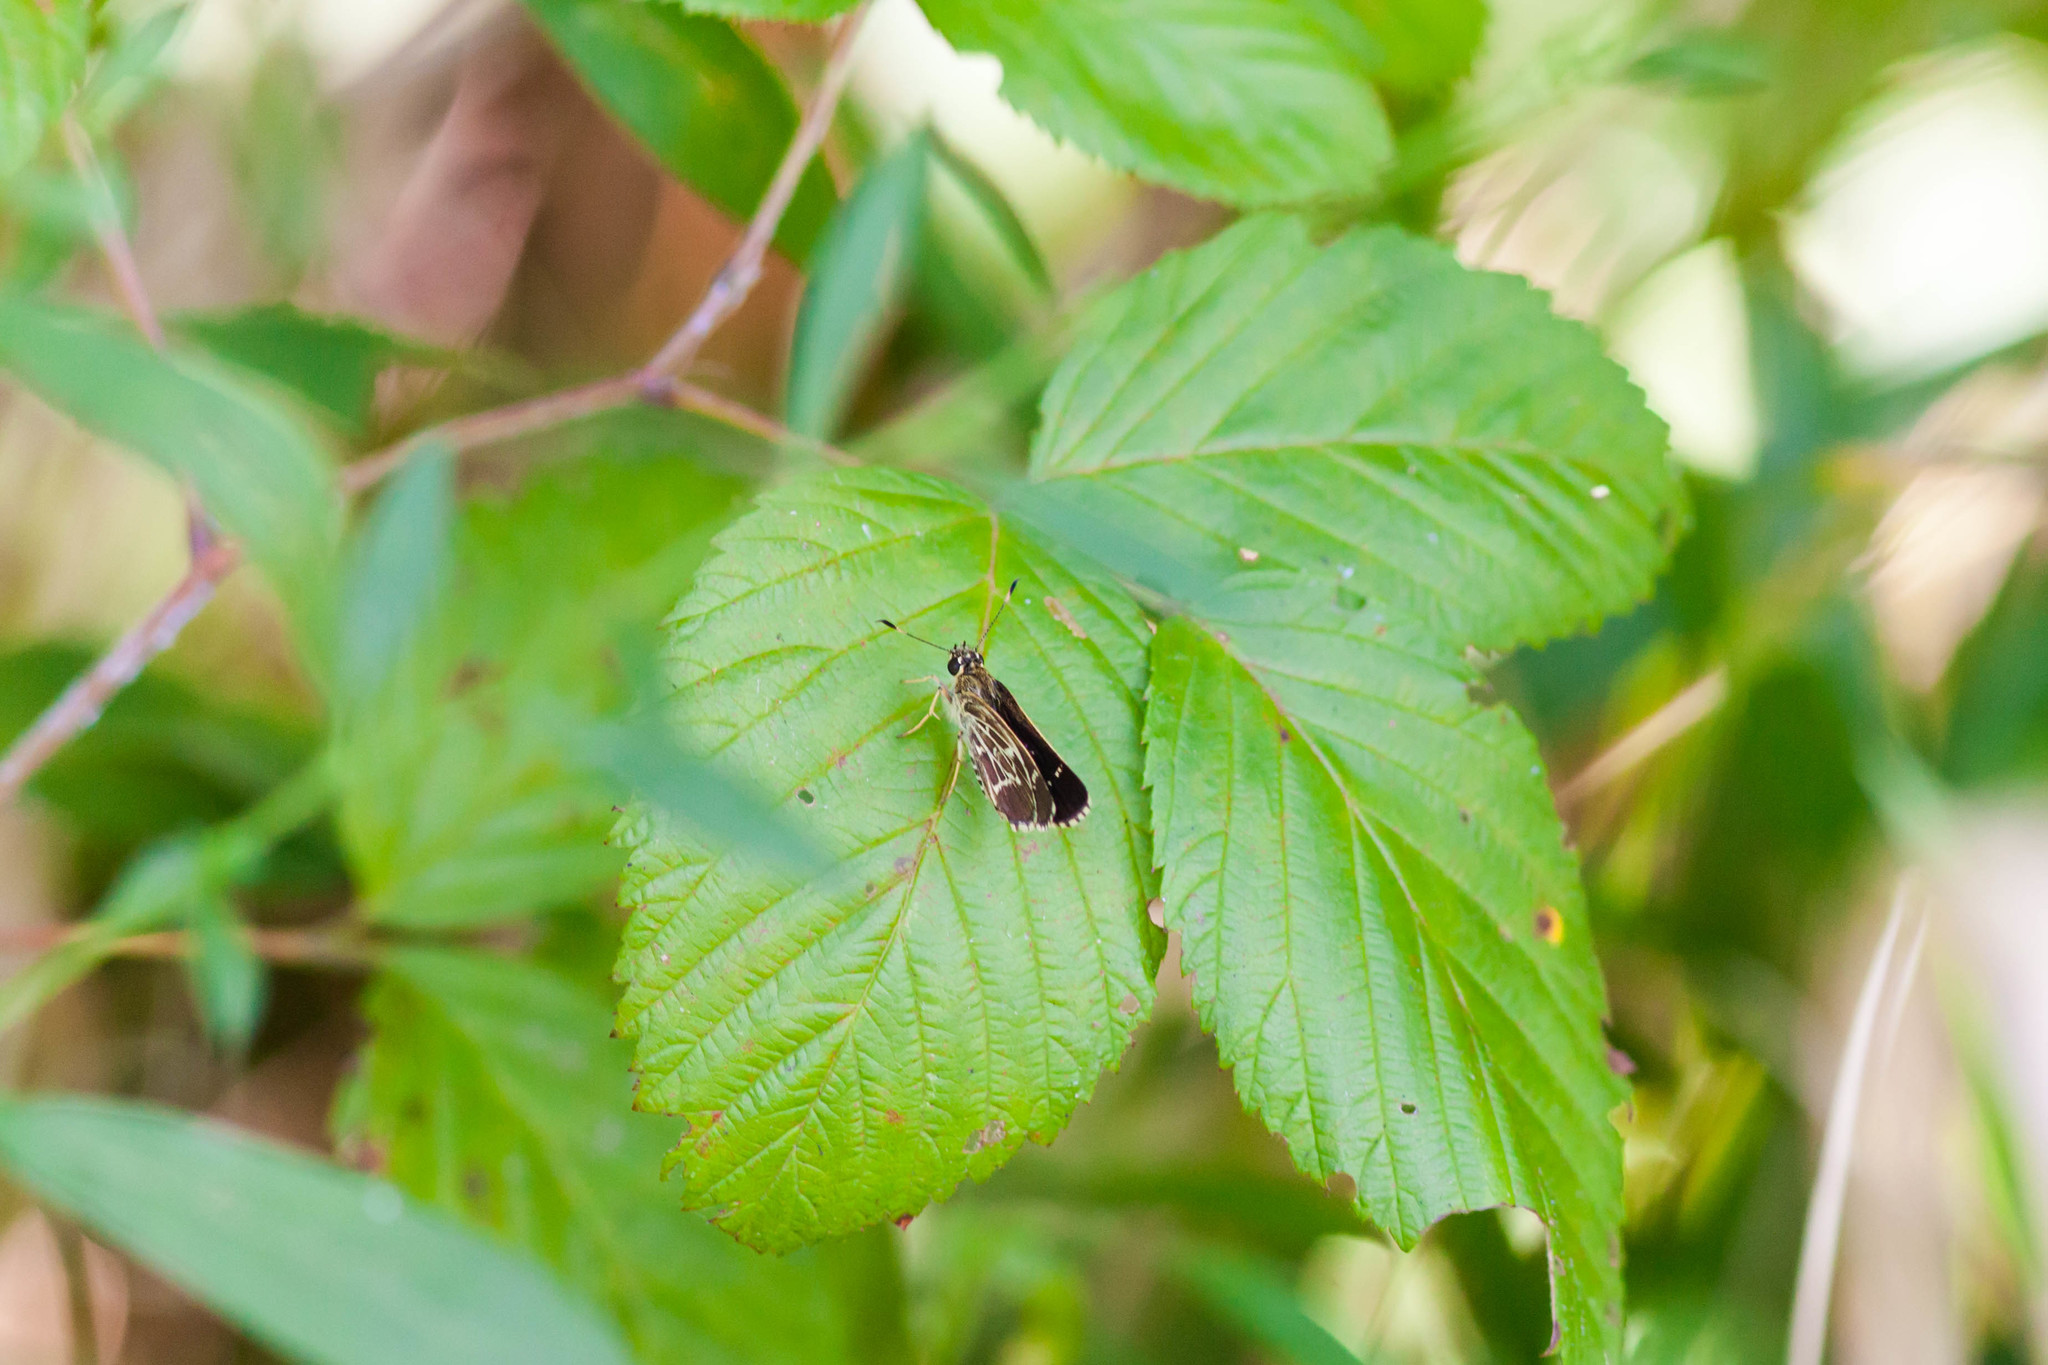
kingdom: Animalia
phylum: Arthropoda
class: Insecta
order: Lepidoptera
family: Hesperiidae
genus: Mastor
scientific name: Mastor aesculapius
